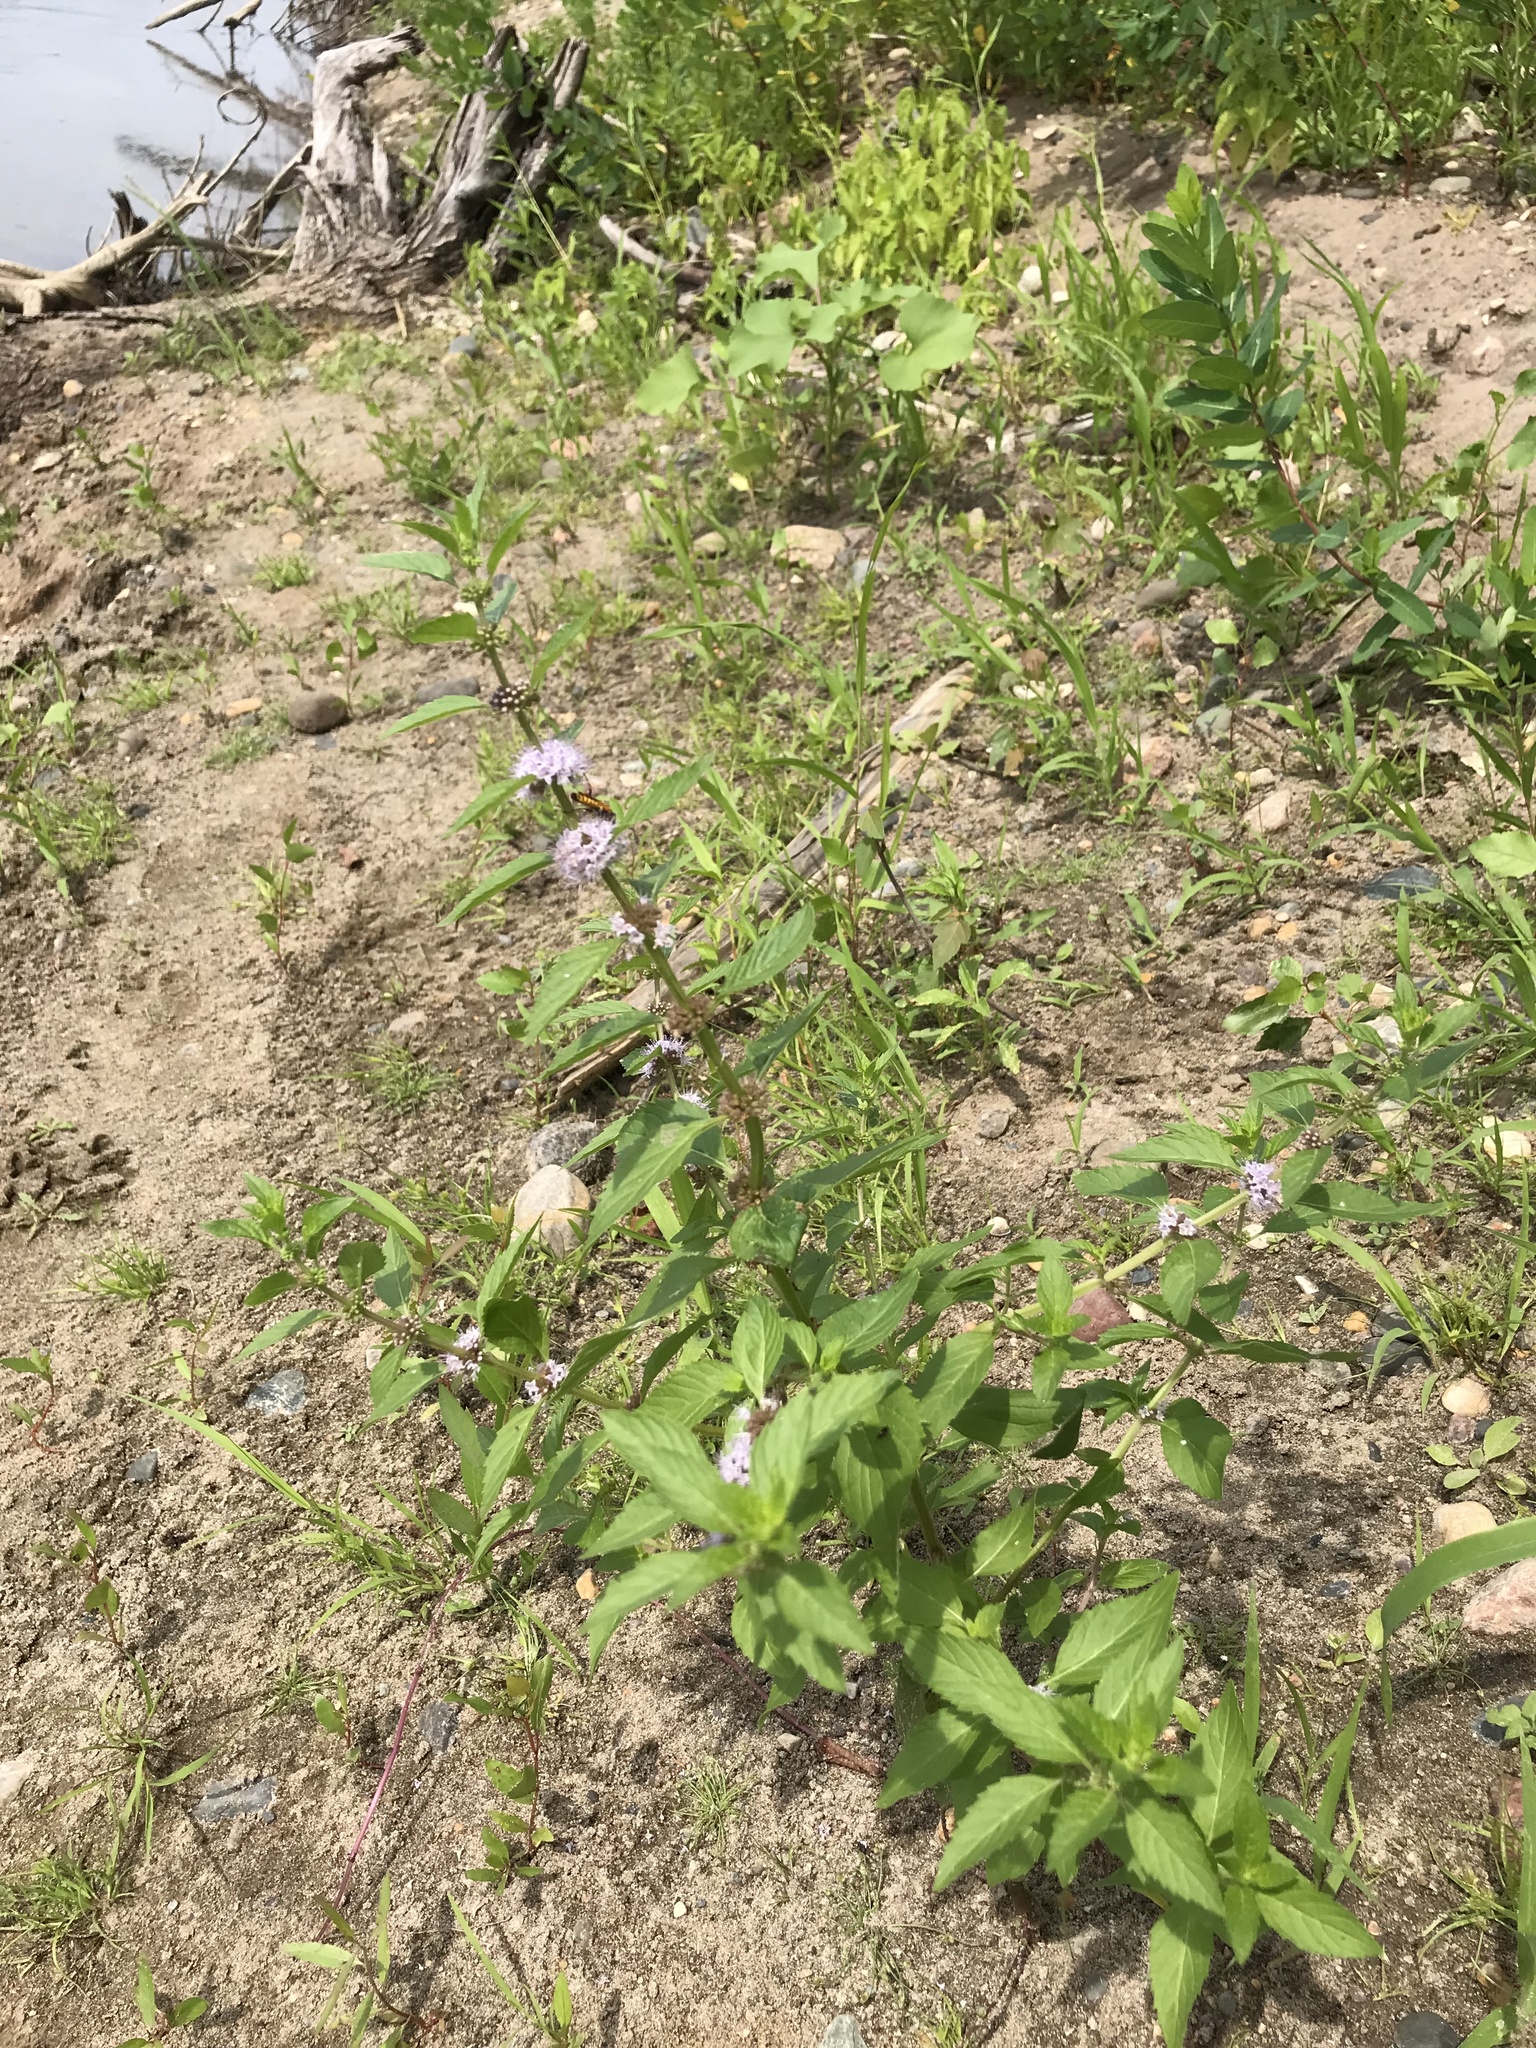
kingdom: Plantae
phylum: Tracheophyta
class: Magnoliopsida
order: Lamiales
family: Lamiaceae
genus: Mentha
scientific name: Mentha canadensis
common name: American corn mint
